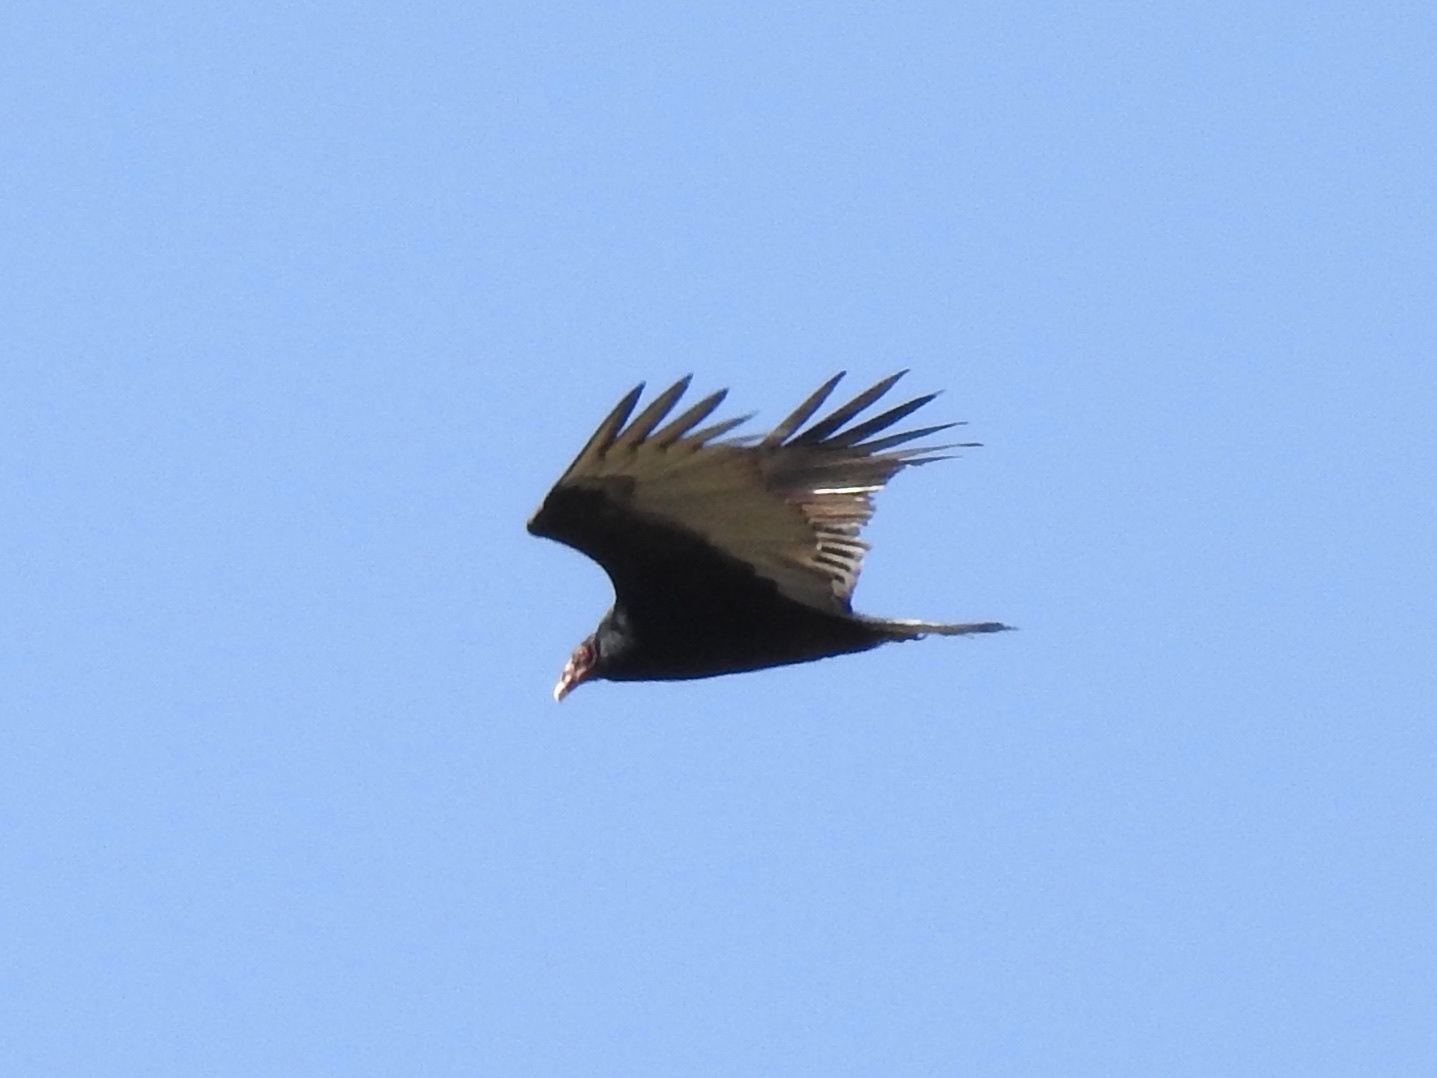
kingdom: Animalia
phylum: Chordata
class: Aves
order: Accipitriformes
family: Cathartidae
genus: Cathartes
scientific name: Cathartes aura
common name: Turkey vulture
